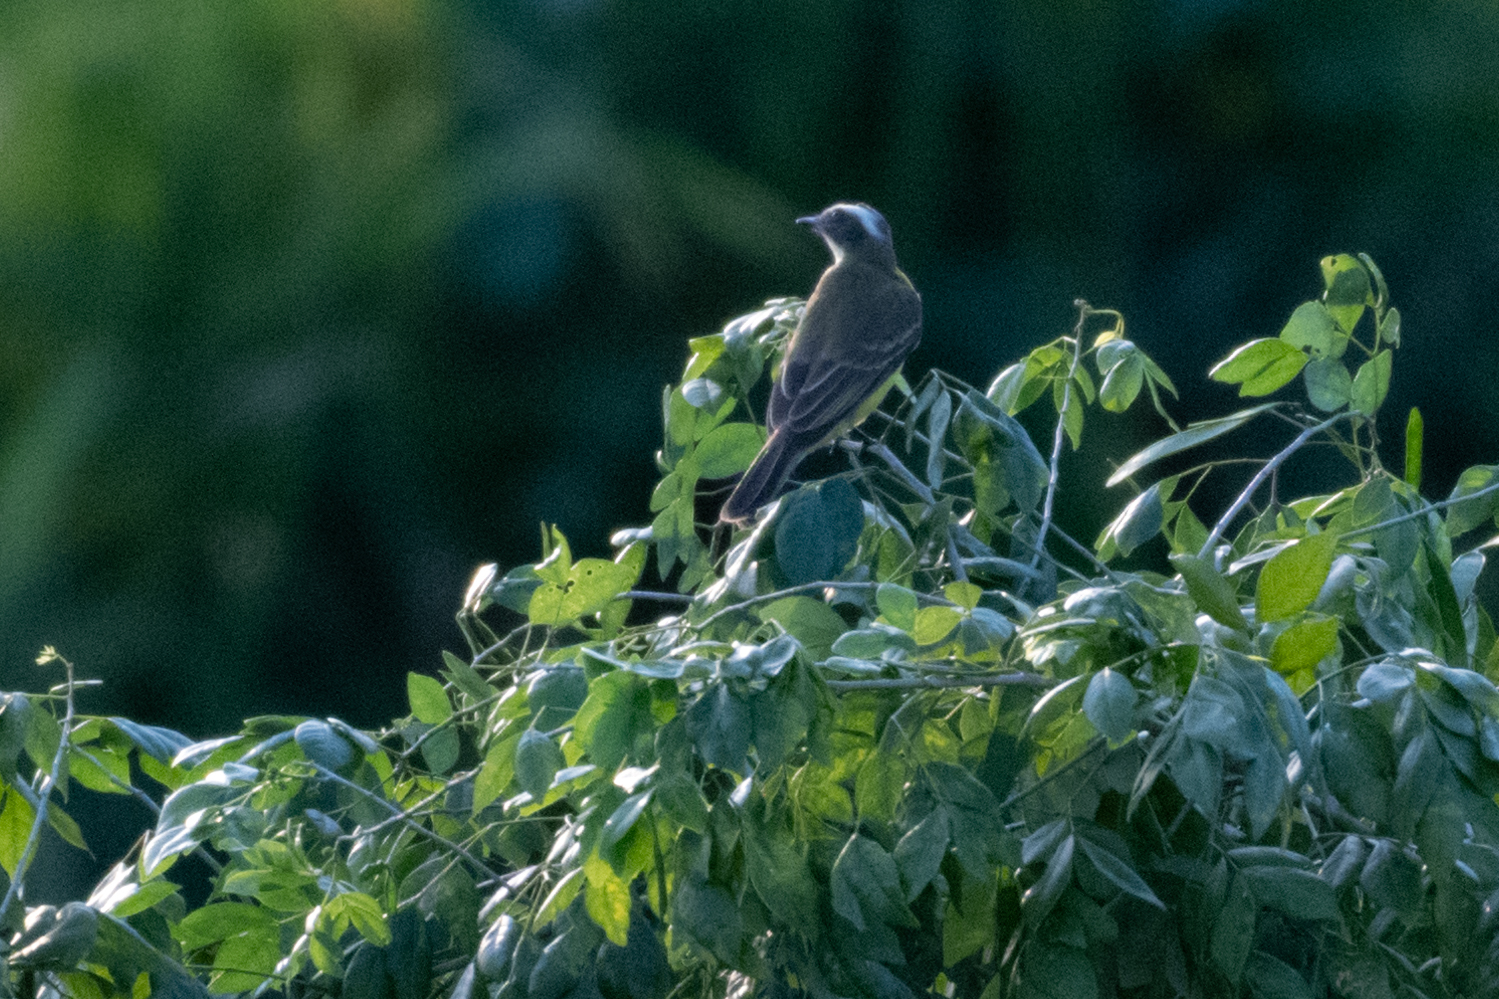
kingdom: Animalia
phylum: Chordata
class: Aves
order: Passeriformes
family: Tyrannidae
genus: Myiozetetes
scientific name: Myiozetetes similis
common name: Social flycatcher
